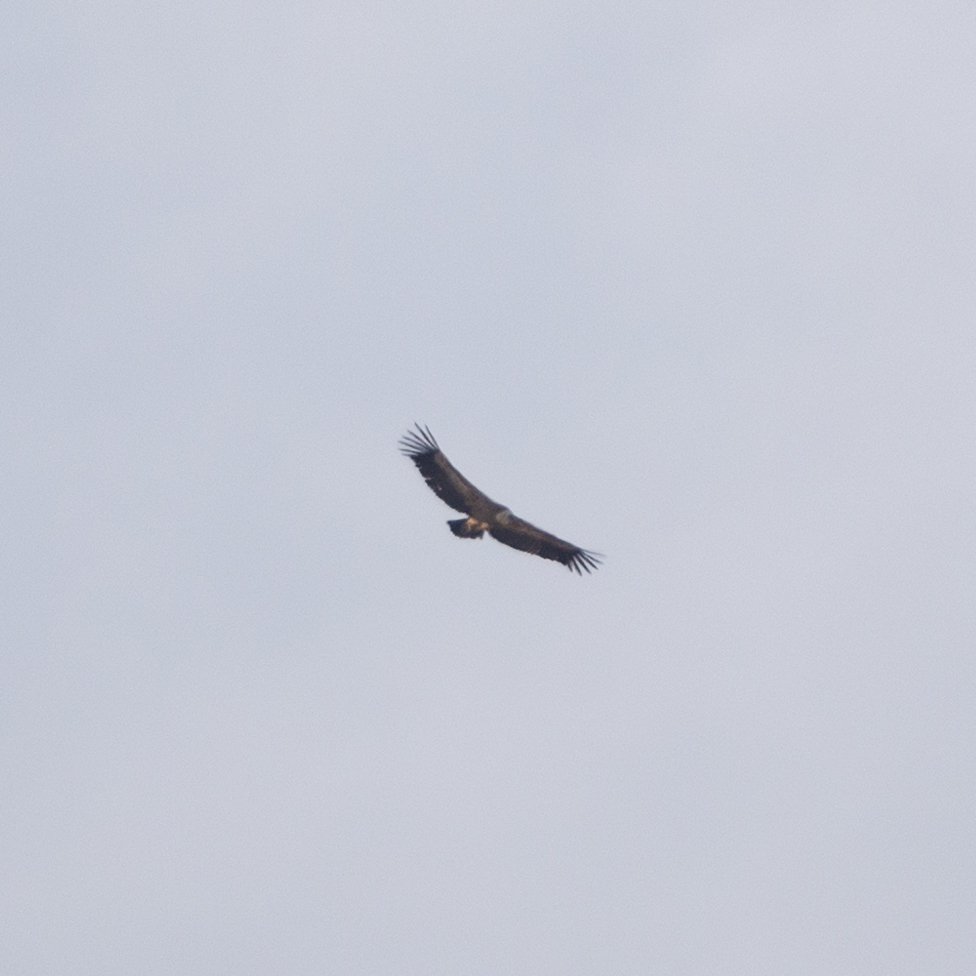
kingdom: Animalia
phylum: Chordata
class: Aves
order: Accipitriformes
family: Accipitridae
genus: Gyps
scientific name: Gyps fulvus
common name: Griffon vulture
